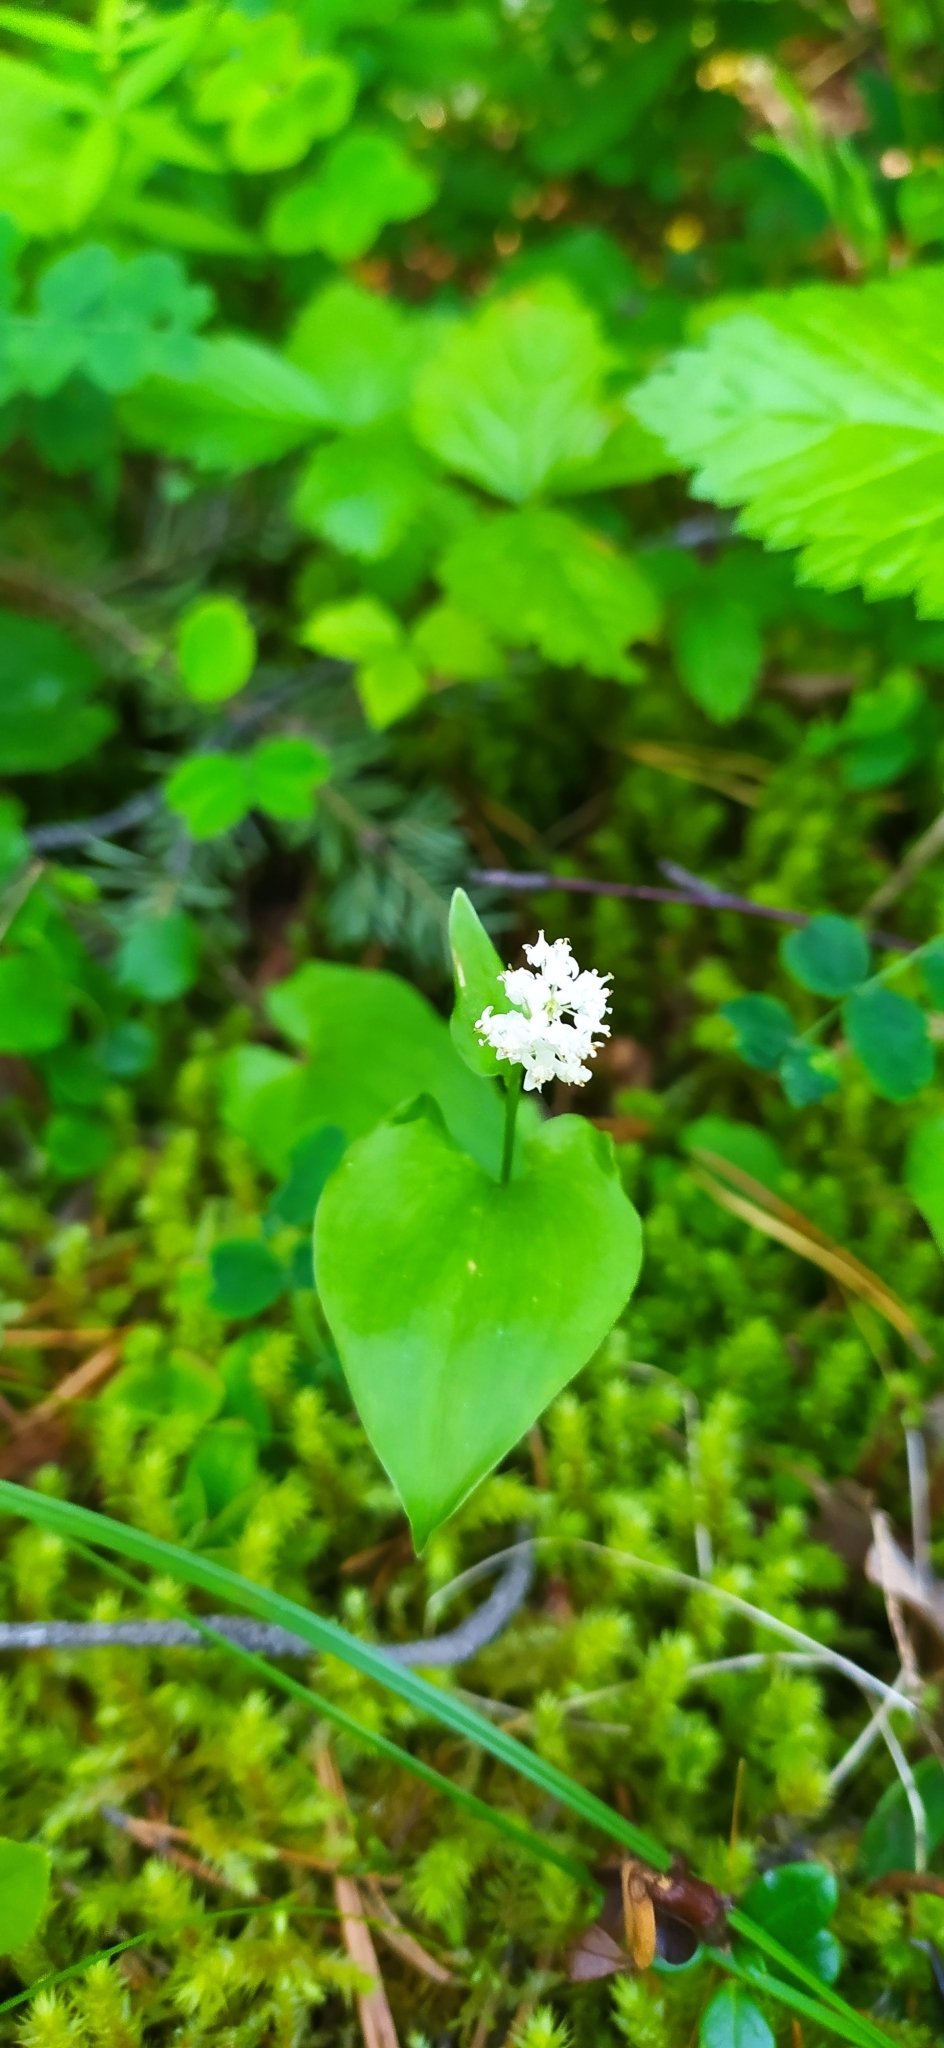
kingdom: Plantae
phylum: Tracheophyta
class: Liliopsida
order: Asparagales
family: Asparagaceae
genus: Maianthemum
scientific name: Maianthemum bifolium
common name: May lily
